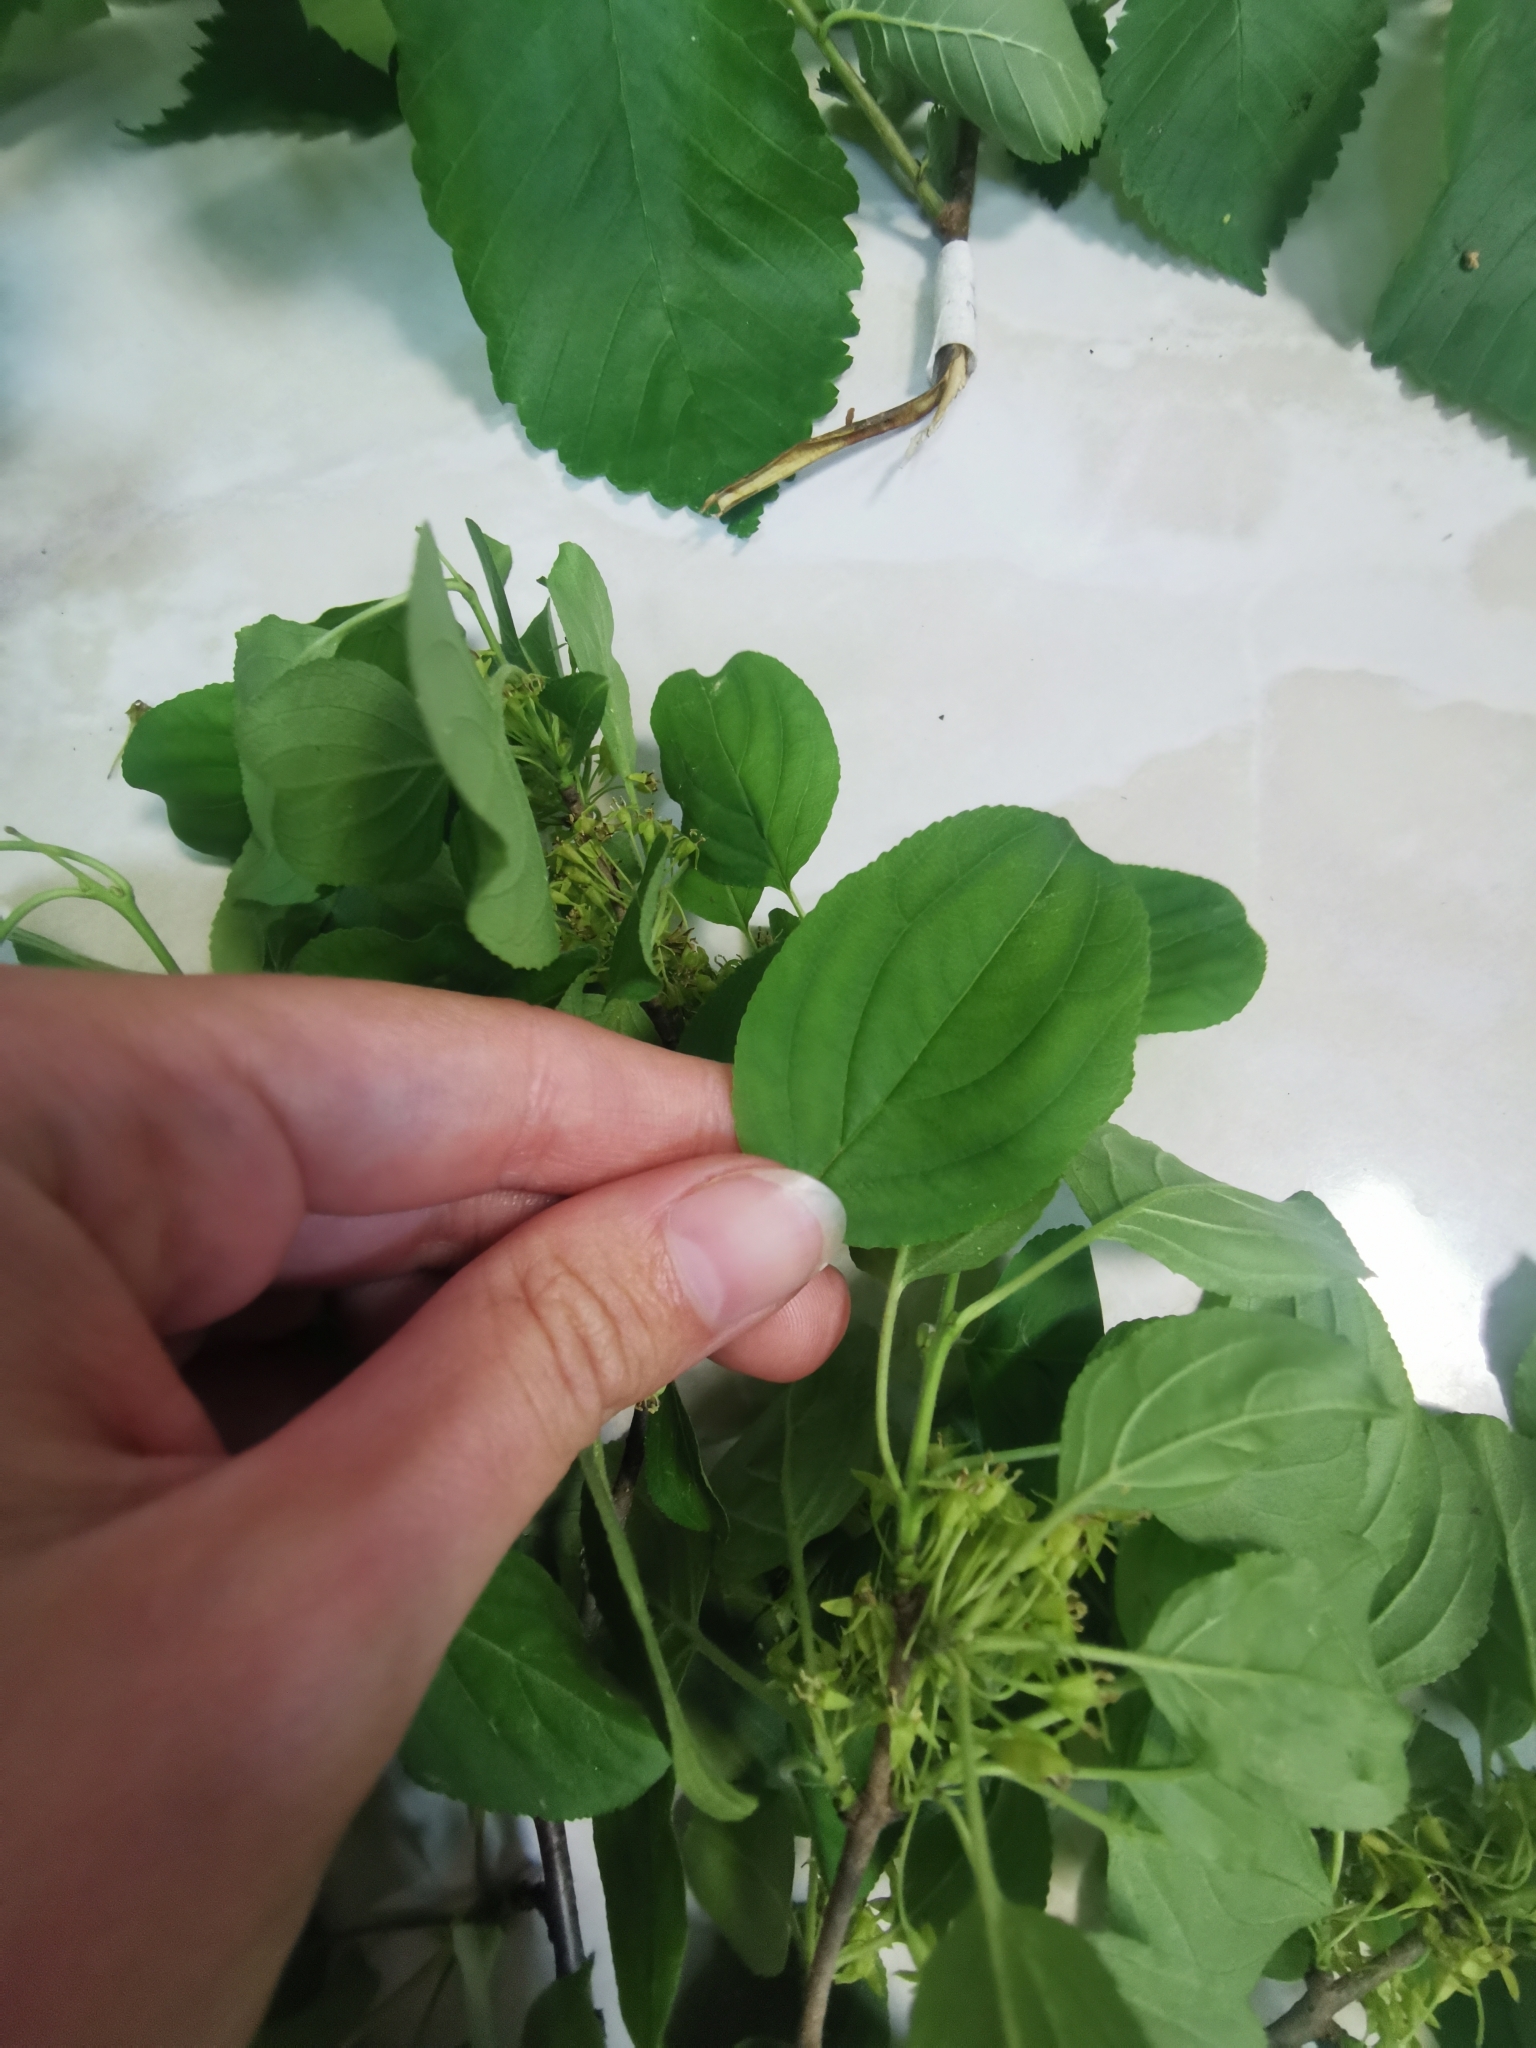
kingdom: Plantae
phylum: Tracheophyta
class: Magnoliopsida
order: Rosales
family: Rhamnaceae
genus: Rhamnus
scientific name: Rhamnus cathartica
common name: Common buckthorn
